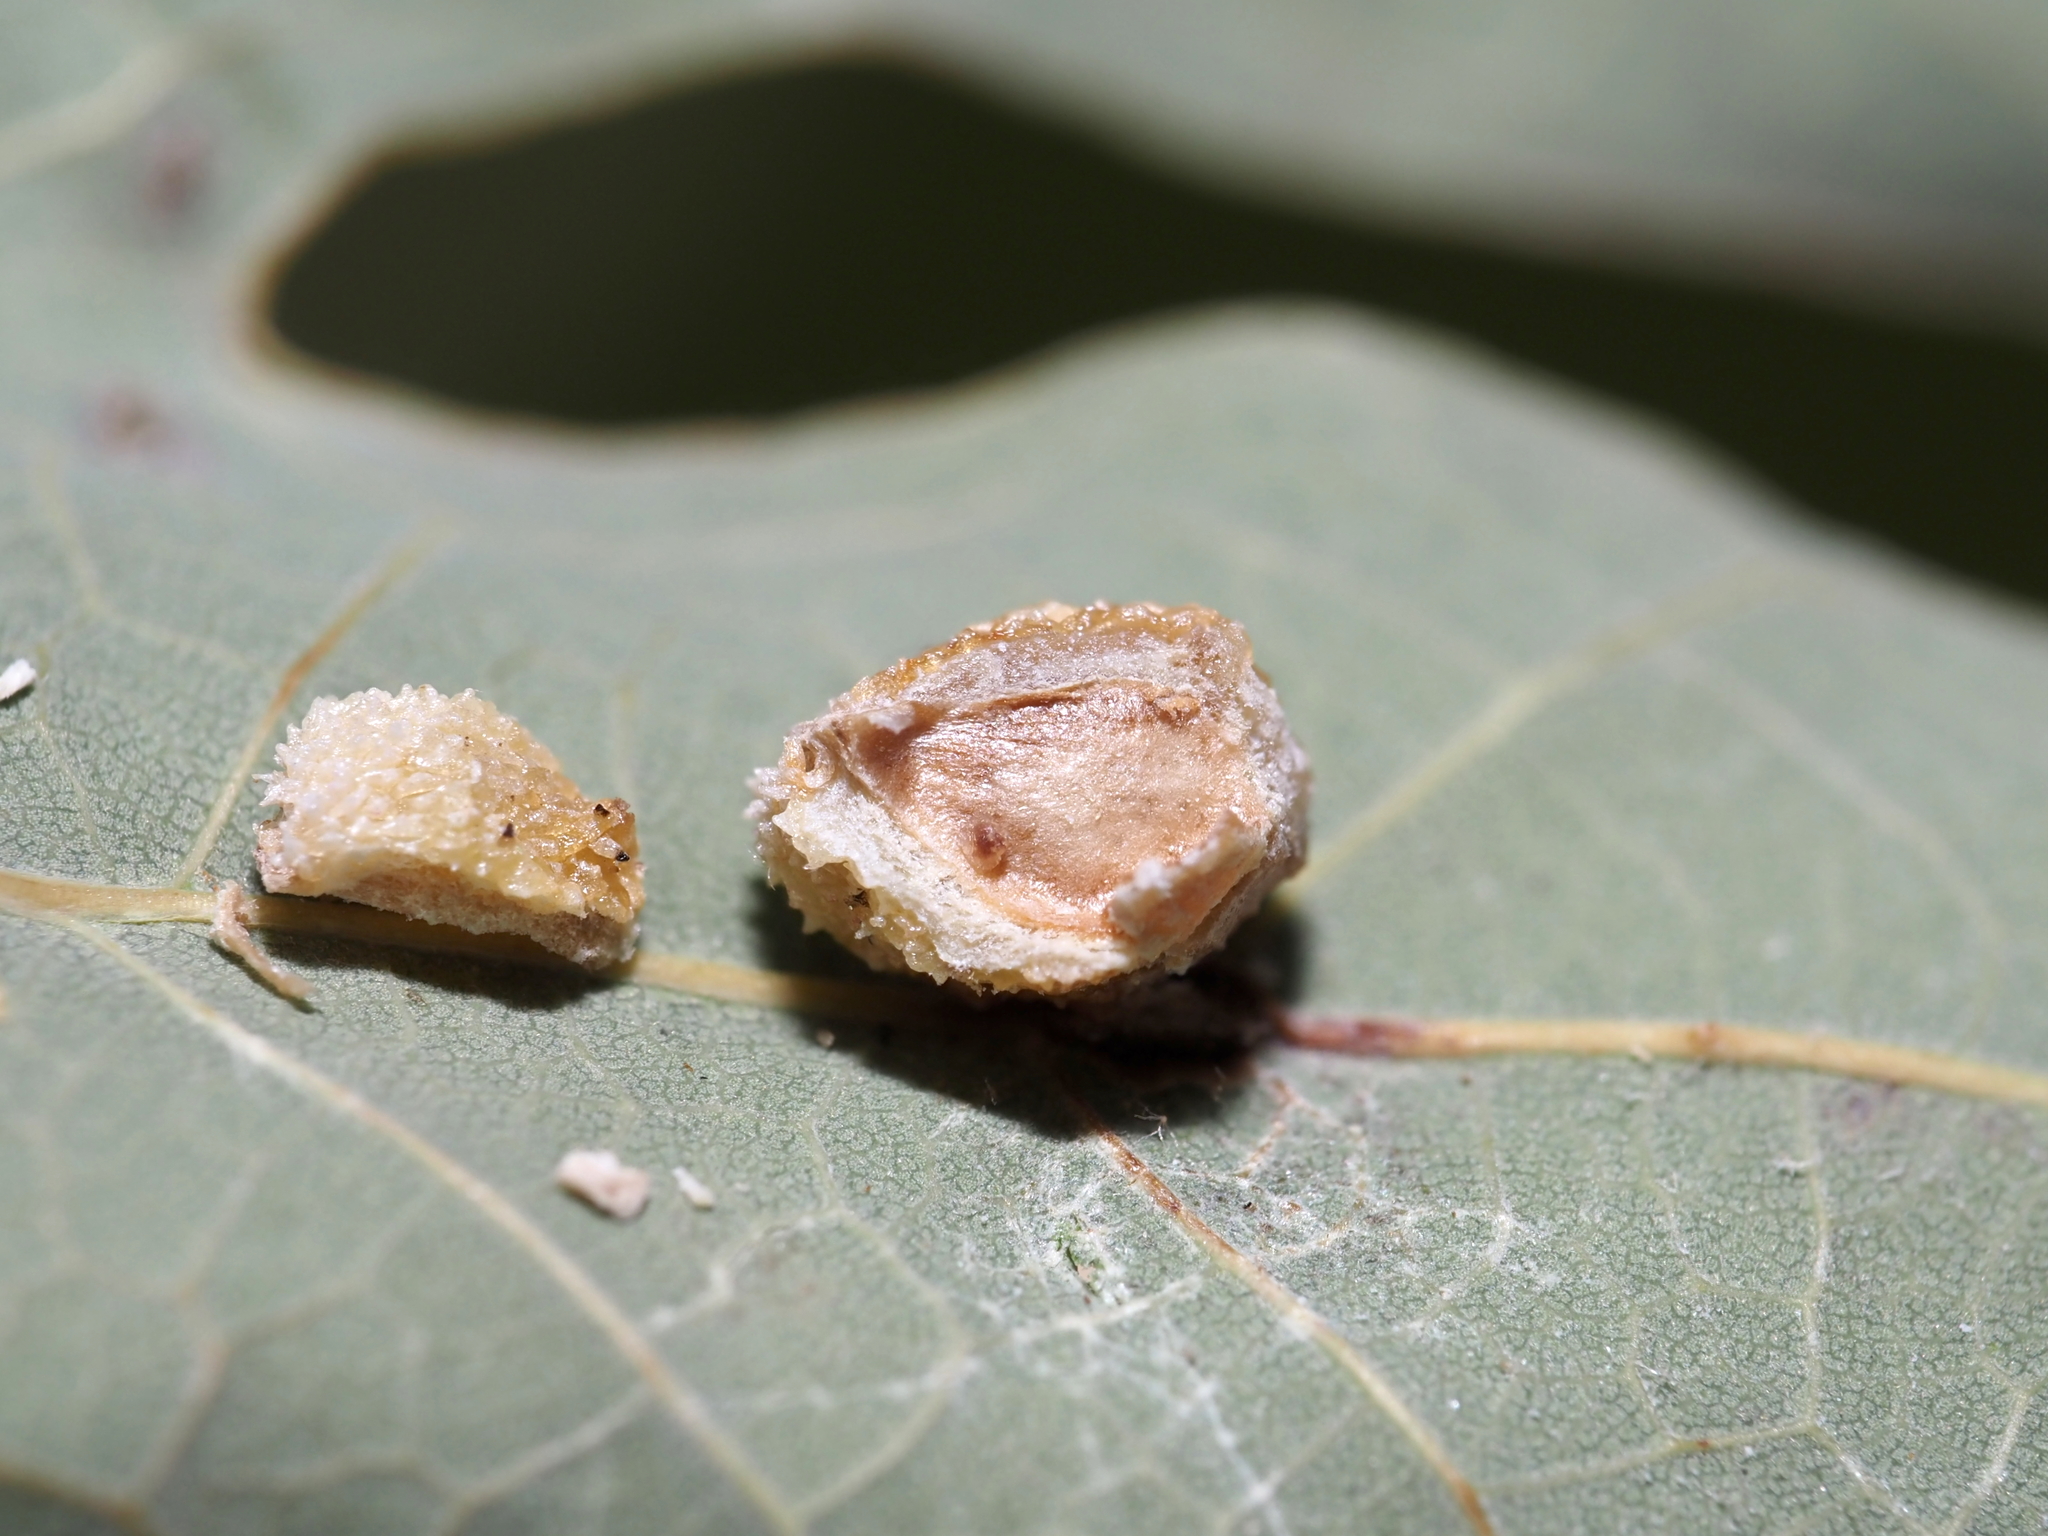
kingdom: Animalia
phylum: Arthropoda
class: Insecta
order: Hymenoptera
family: Cynipidae
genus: Acraspis
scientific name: Acraspis
